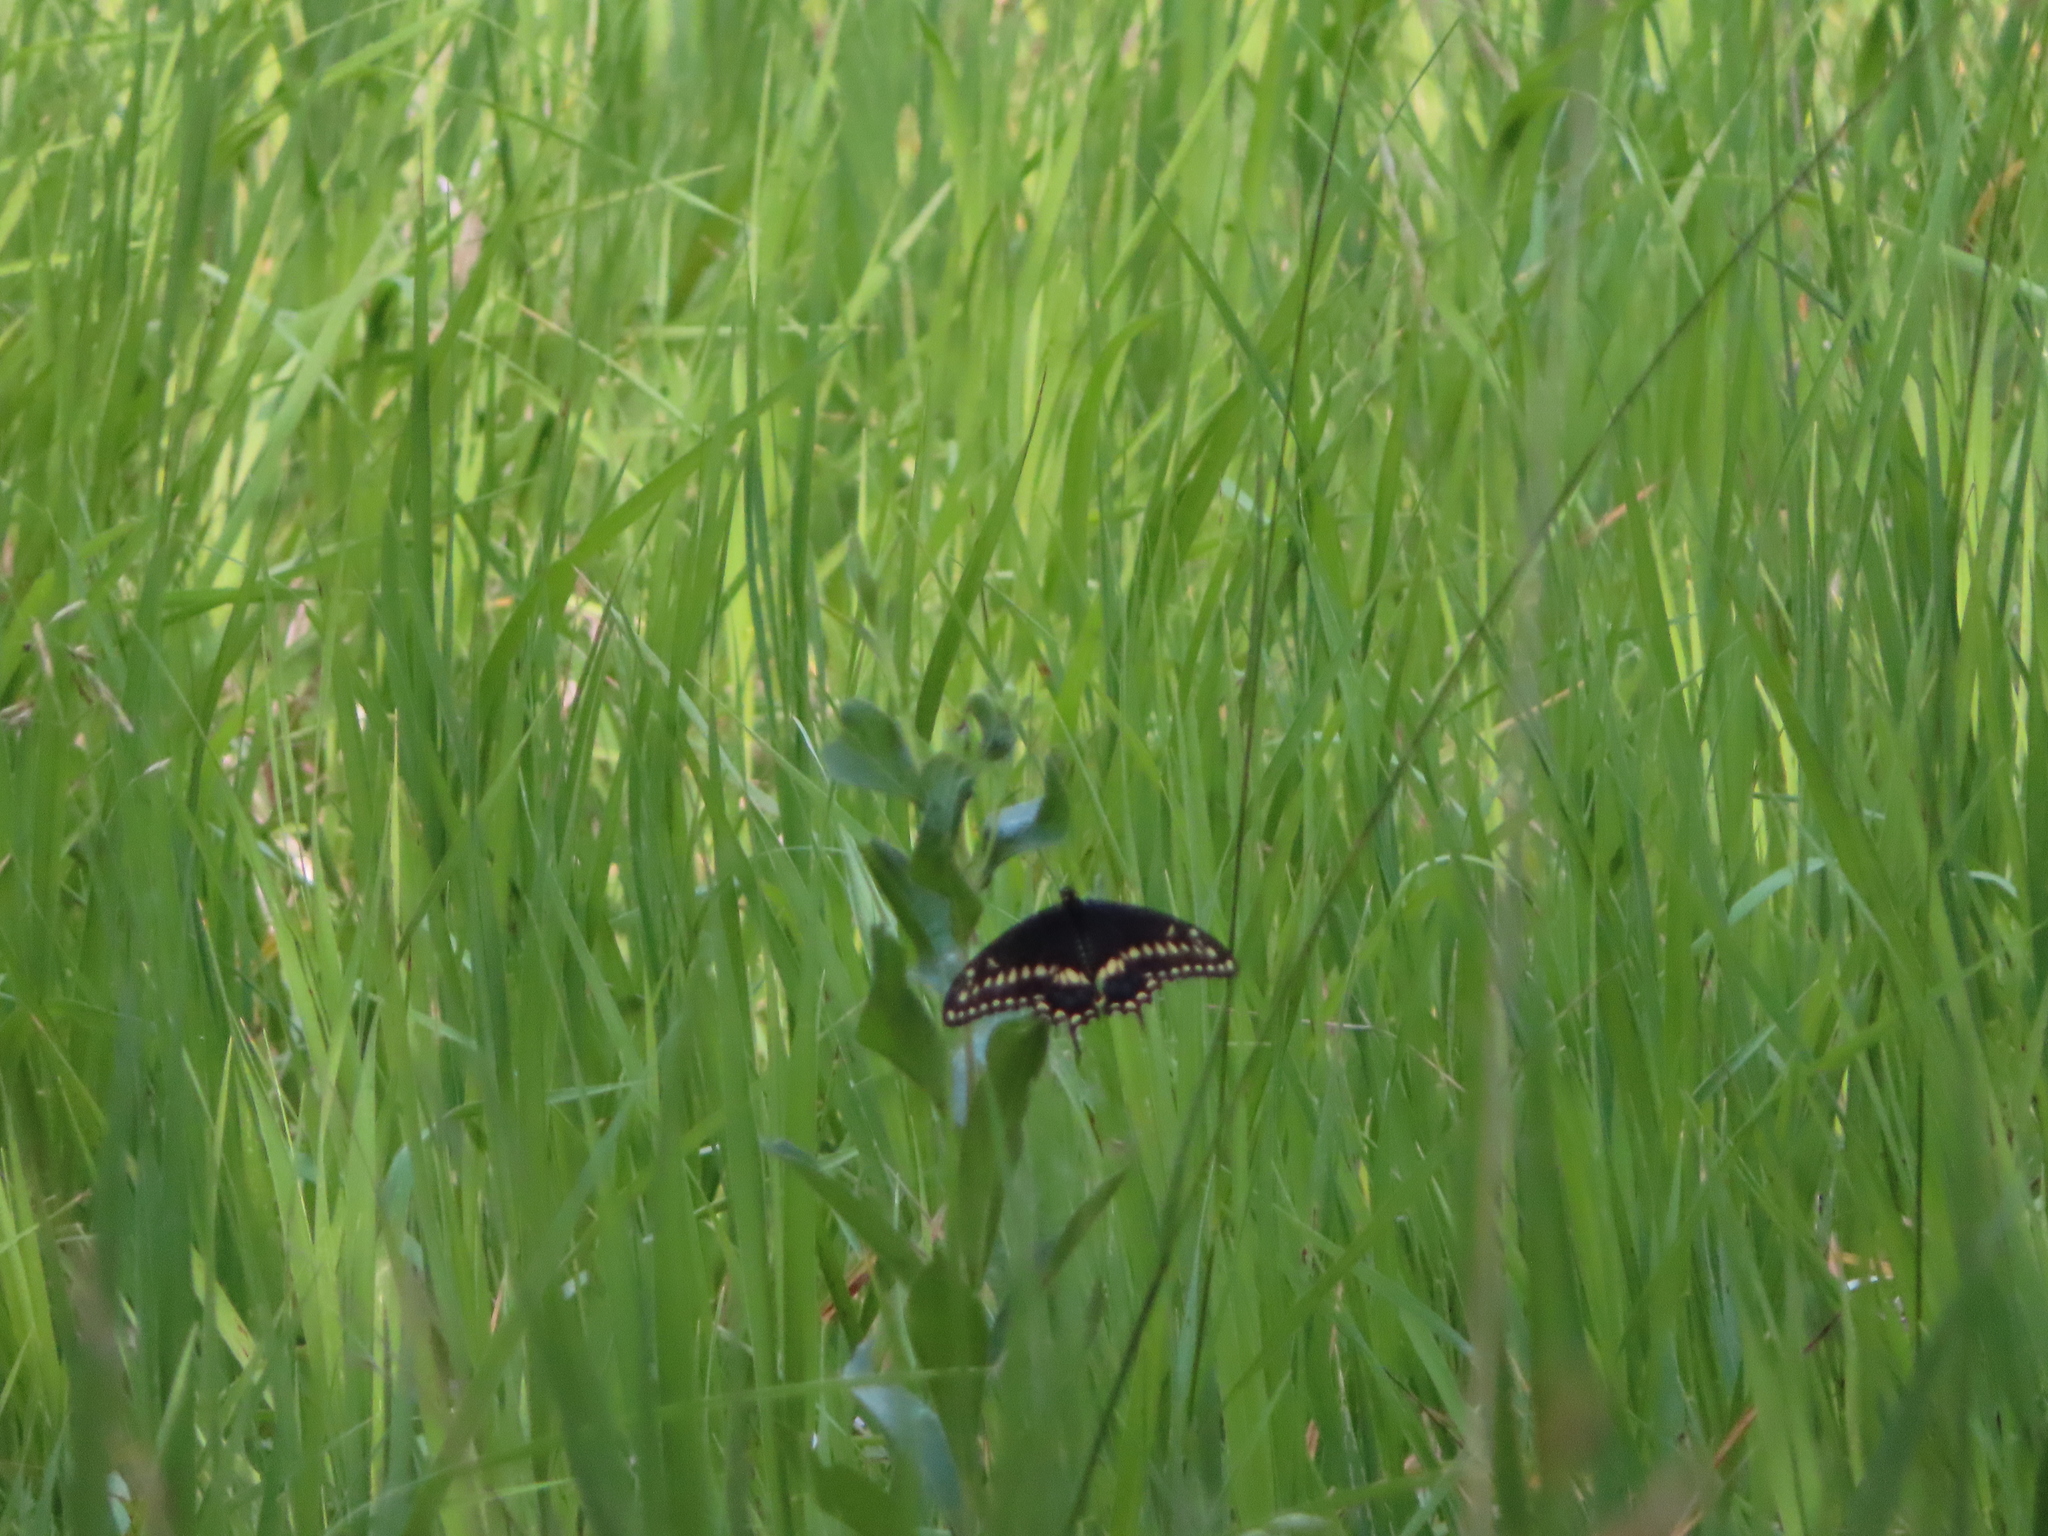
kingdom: Animalia
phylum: Arthropoda
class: Insecta
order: Lepidoptera
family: Papilionidae
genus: Papilio
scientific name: Papilio polyxenes
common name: Black swallowtail
